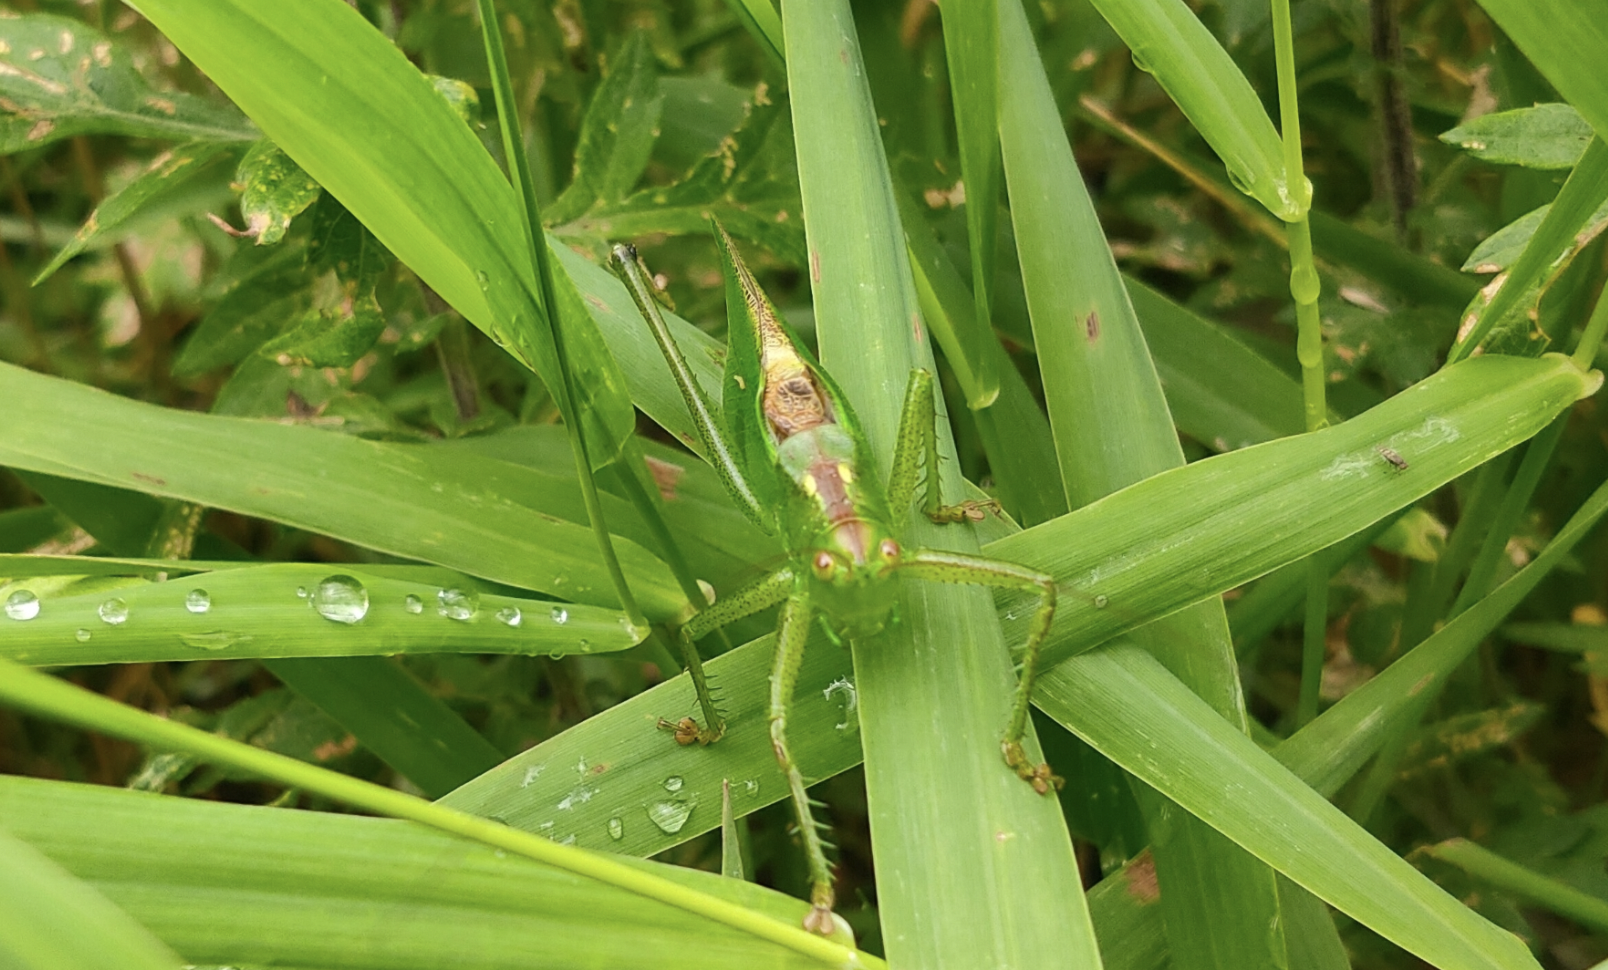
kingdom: Animalia
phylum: Arthropoda
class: Insecta
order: Orthoptera
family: Tettigoniidae
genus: Tettigonia
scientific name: Tettigonia orientalis
